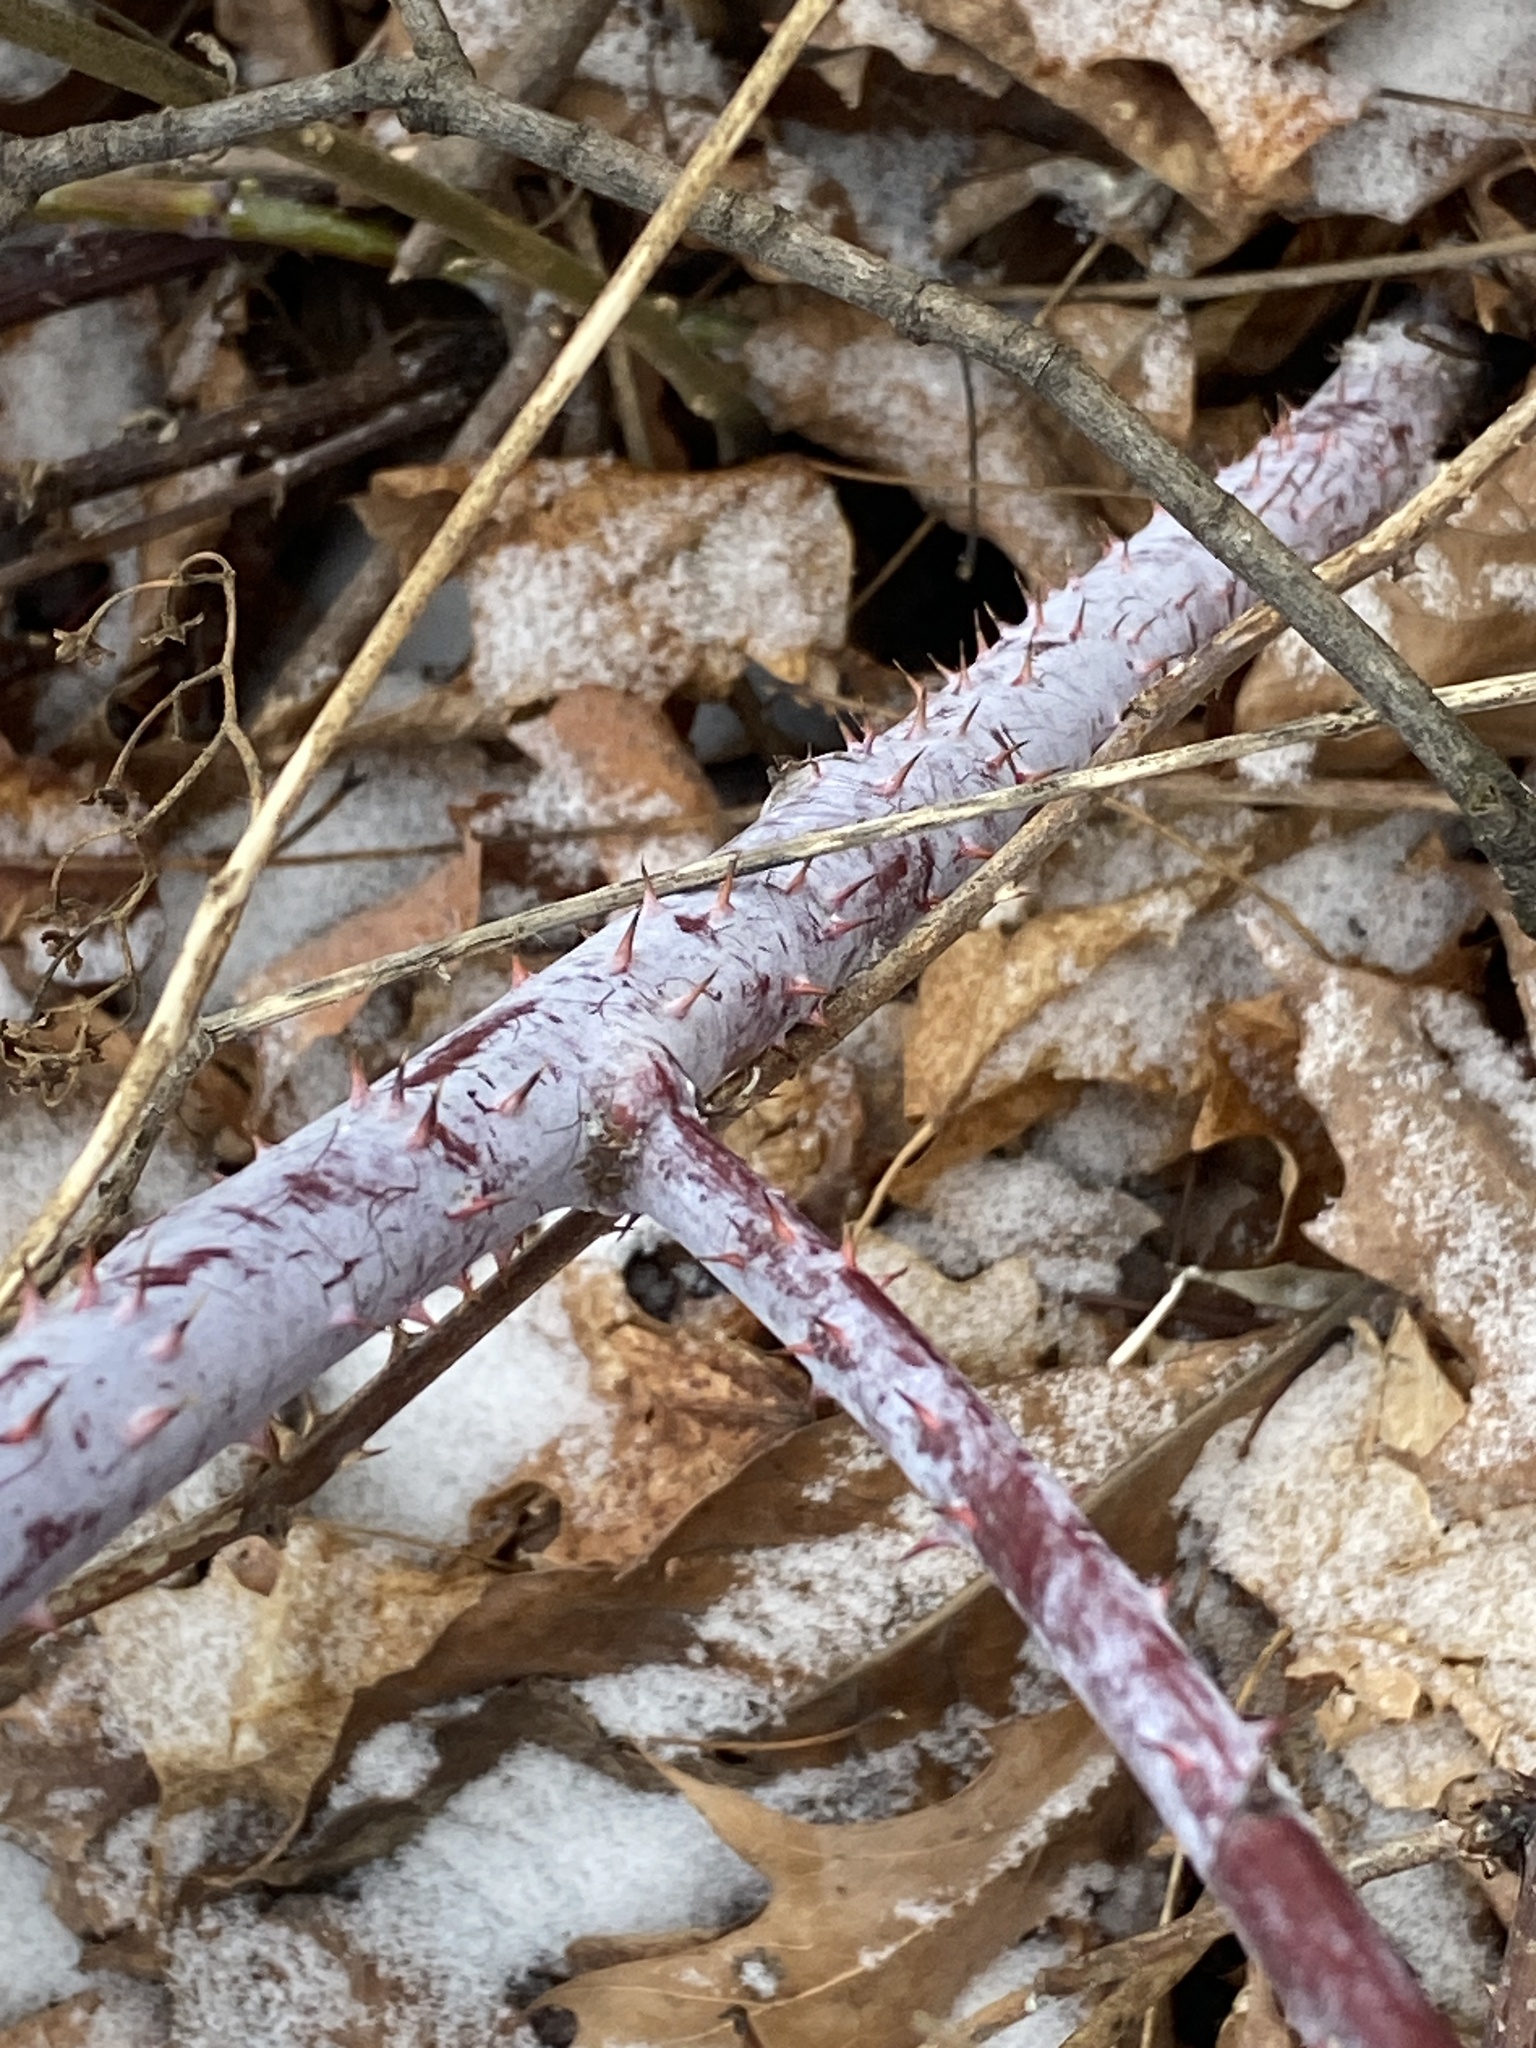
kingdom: Plantae
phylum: Tracheophyta
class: Magnoliopsida
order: Rosales
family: Rosaceae
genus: Rubus
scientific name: Rubus occidentalis
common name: Black raspberry
